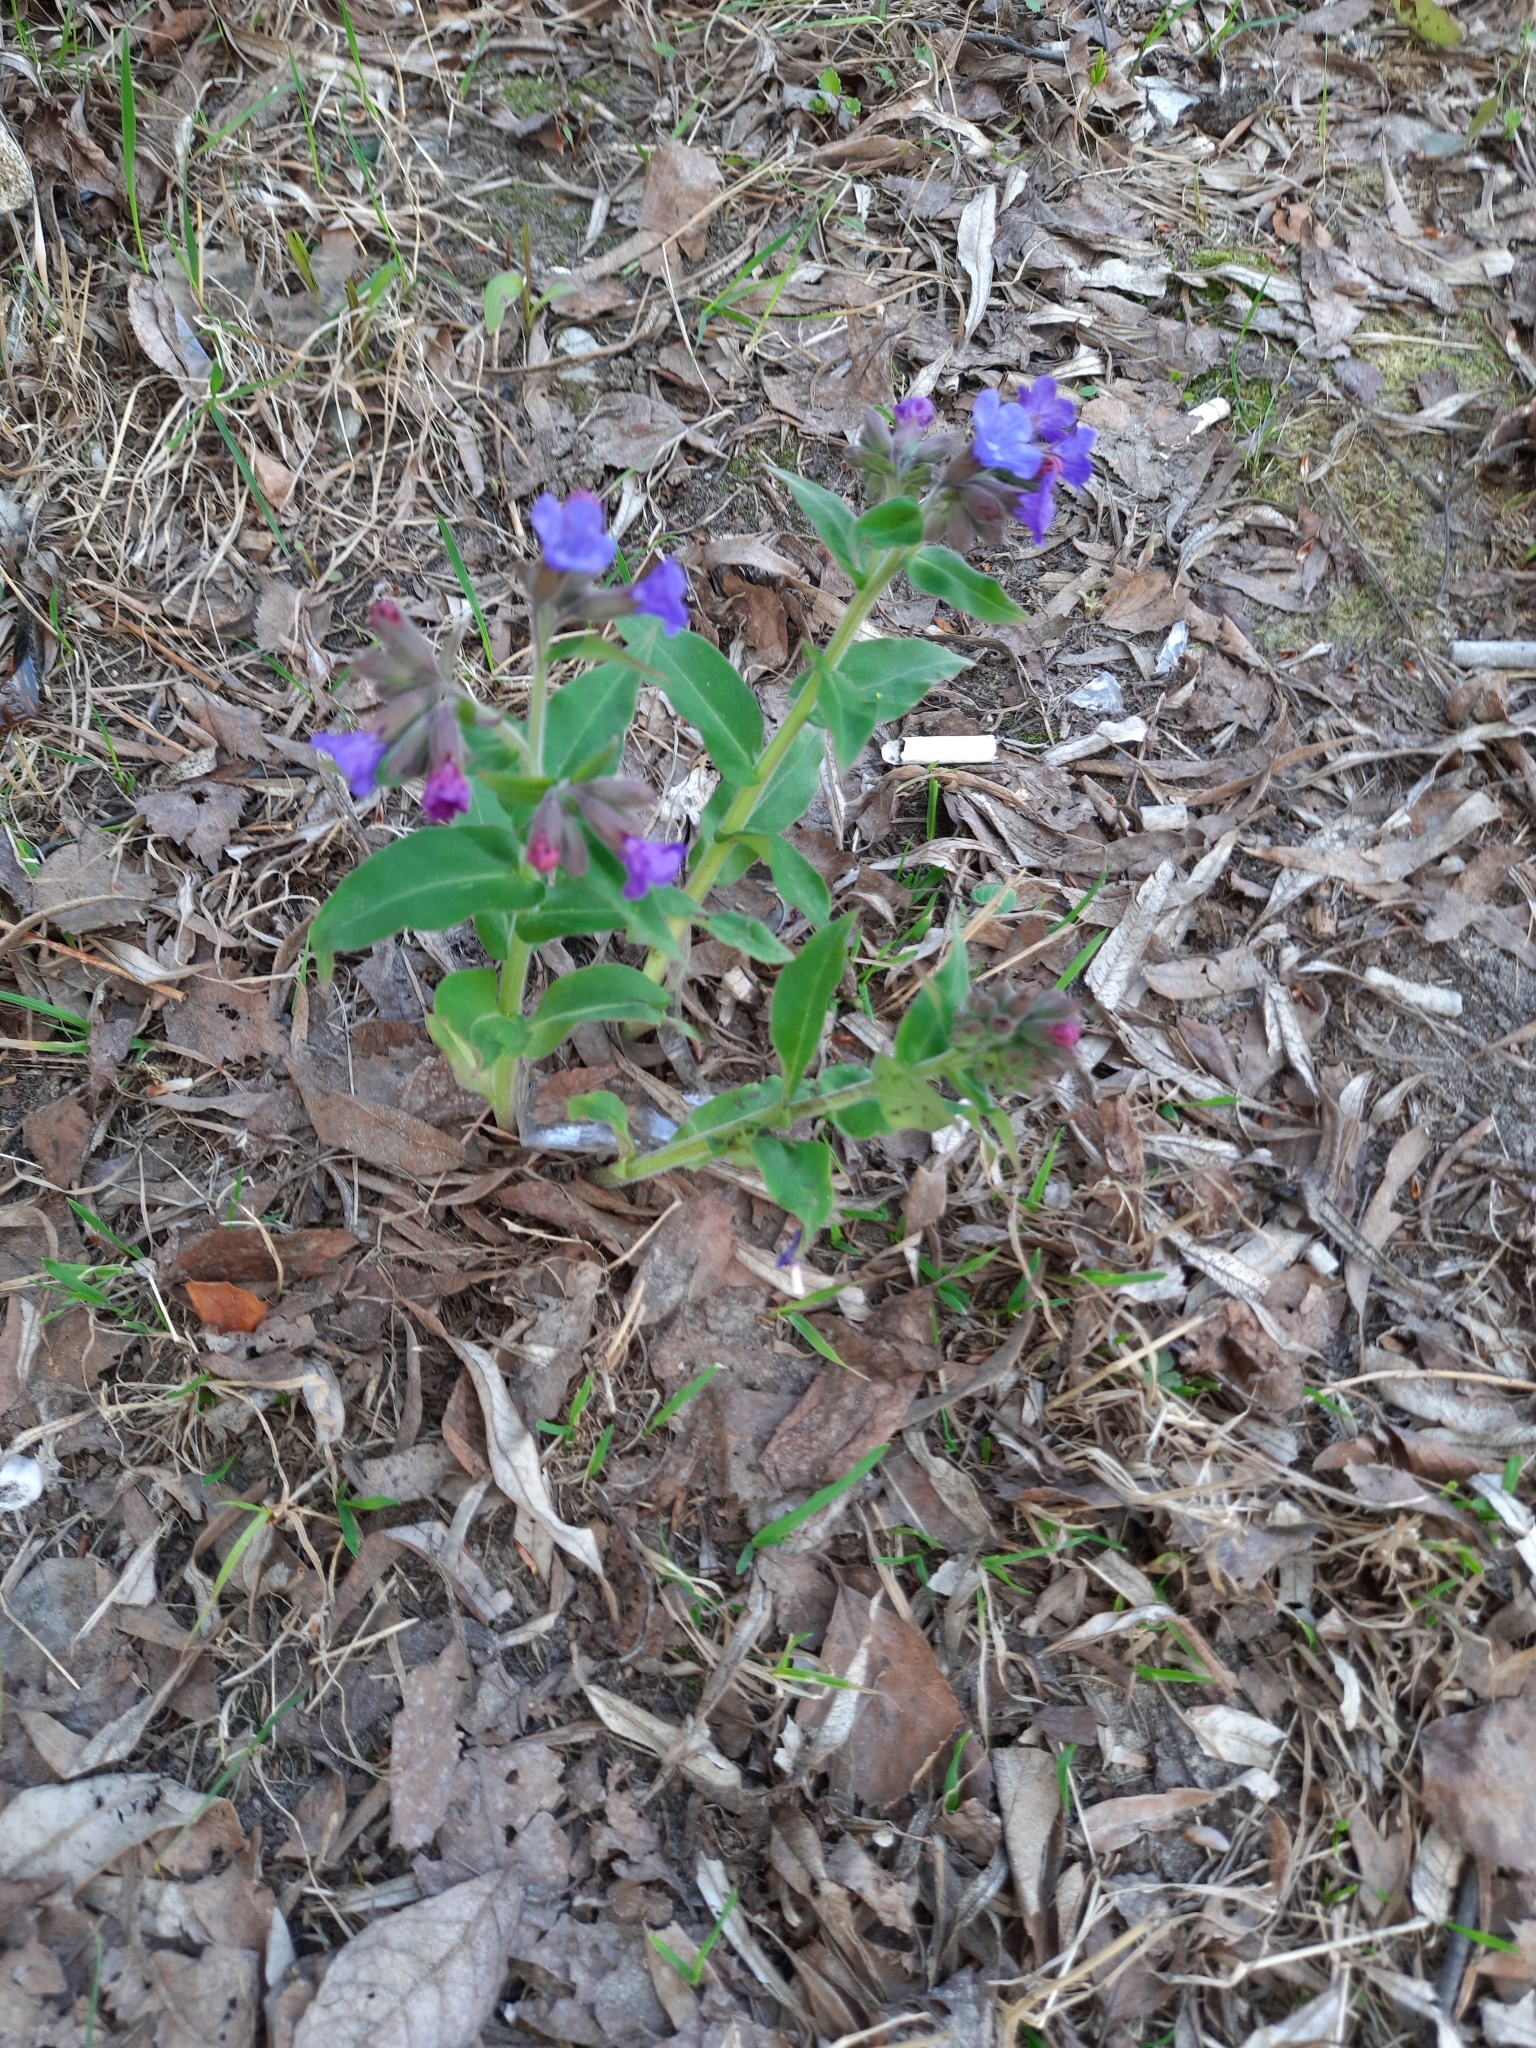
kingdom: Plantae
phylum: Tracheophyta
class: Magnoliopsida
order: Boraginales
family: Boraginaceae
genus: Pulmonaria
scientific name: Pulmonaria mollis
